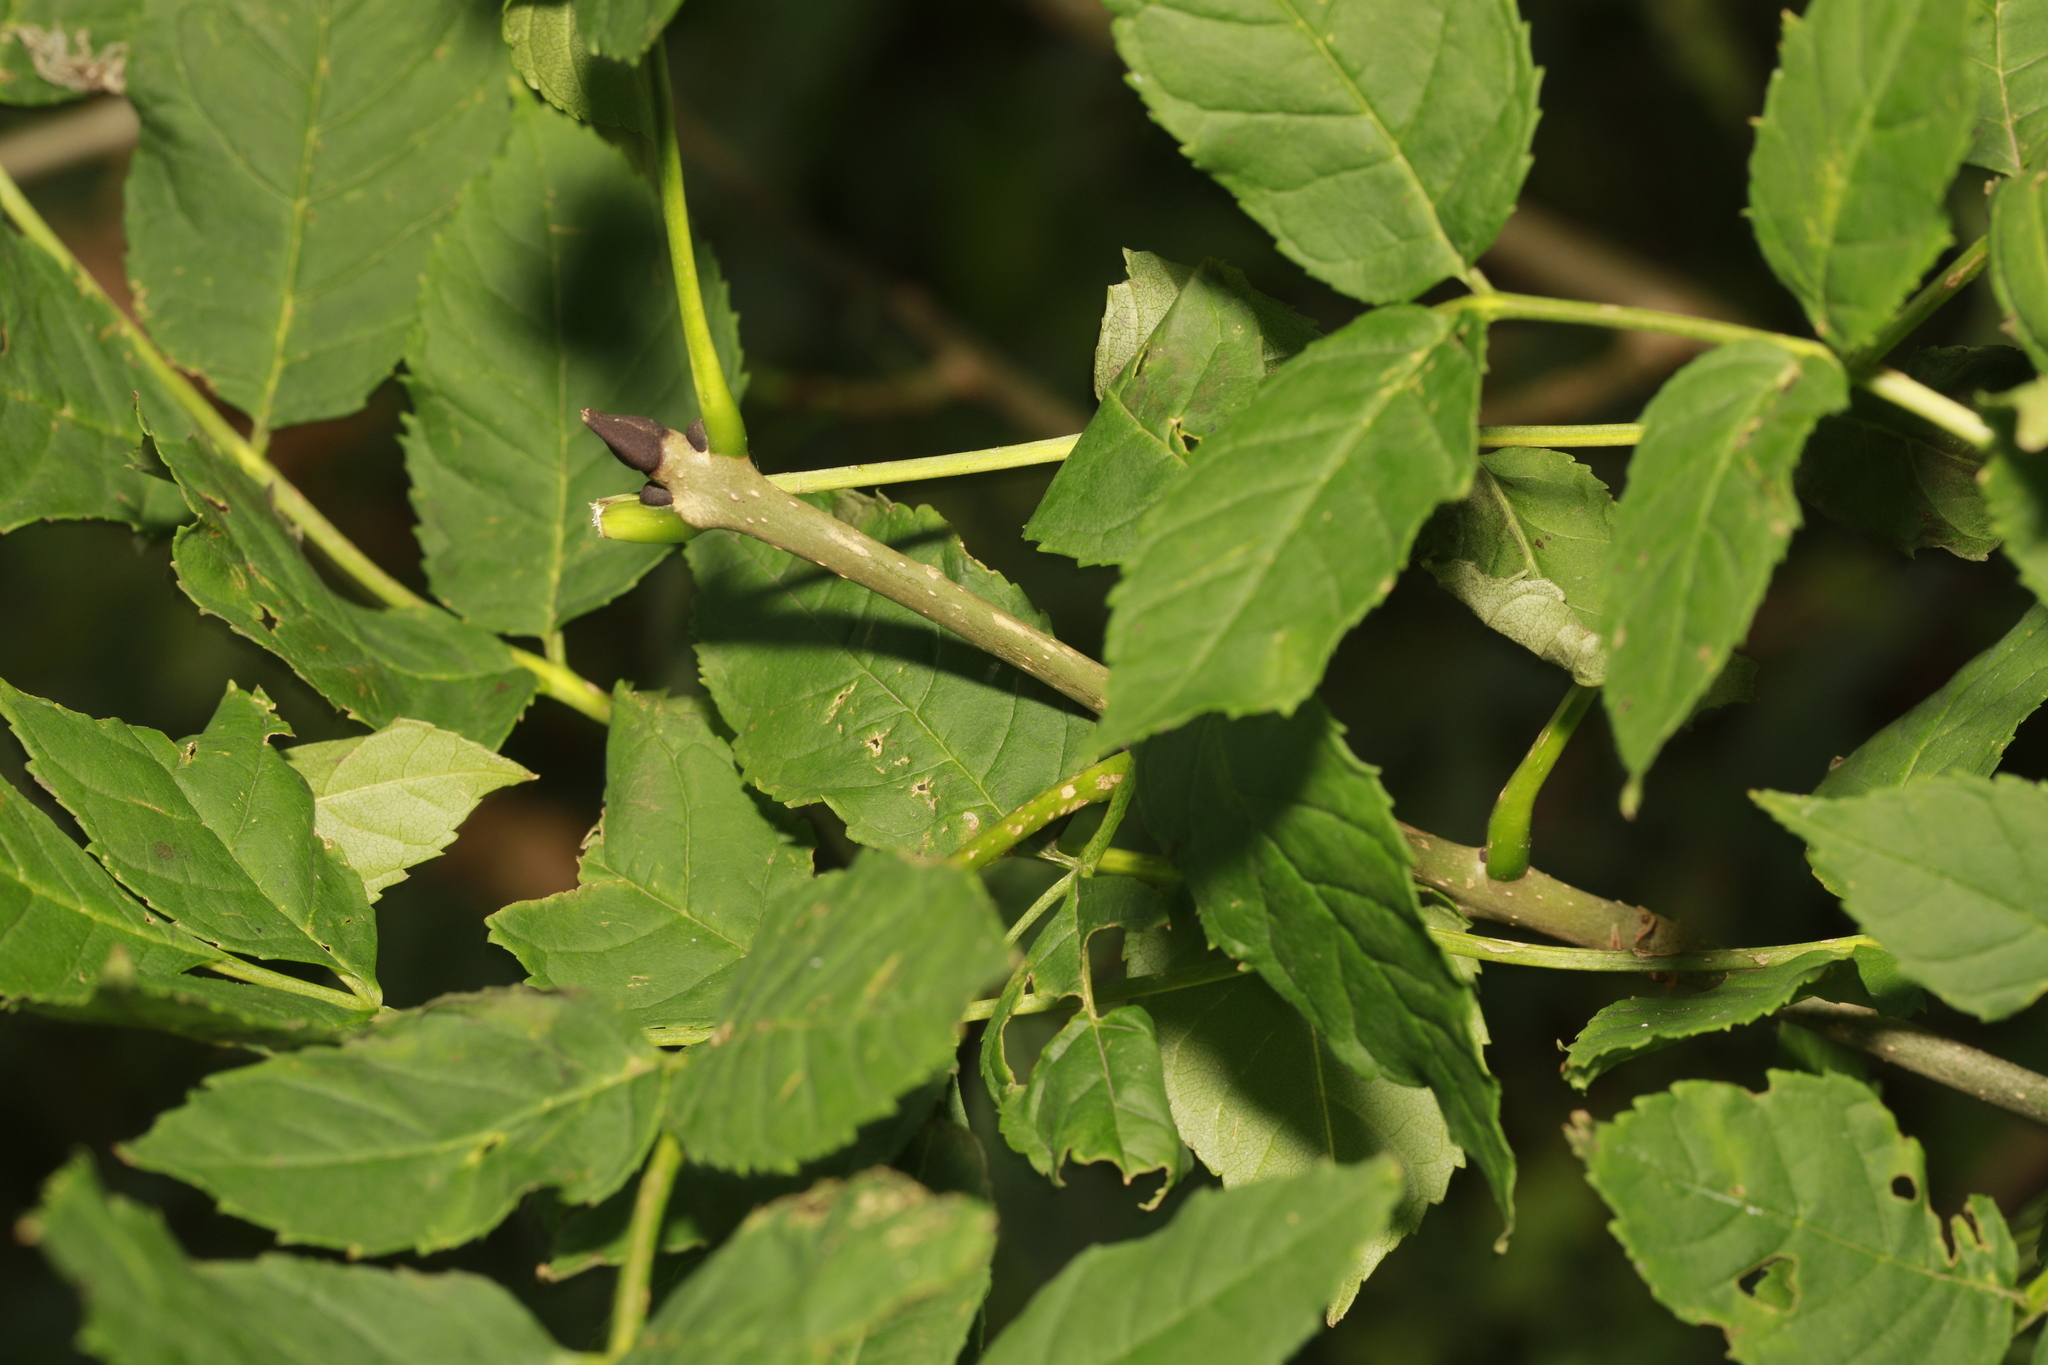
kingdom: Plantae
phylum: Tracheophyta
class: Magnoliopsida
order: Lamiales
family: Oleaceae
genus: Fraxinus
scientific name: Fraxinus excelsior
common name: European ash
